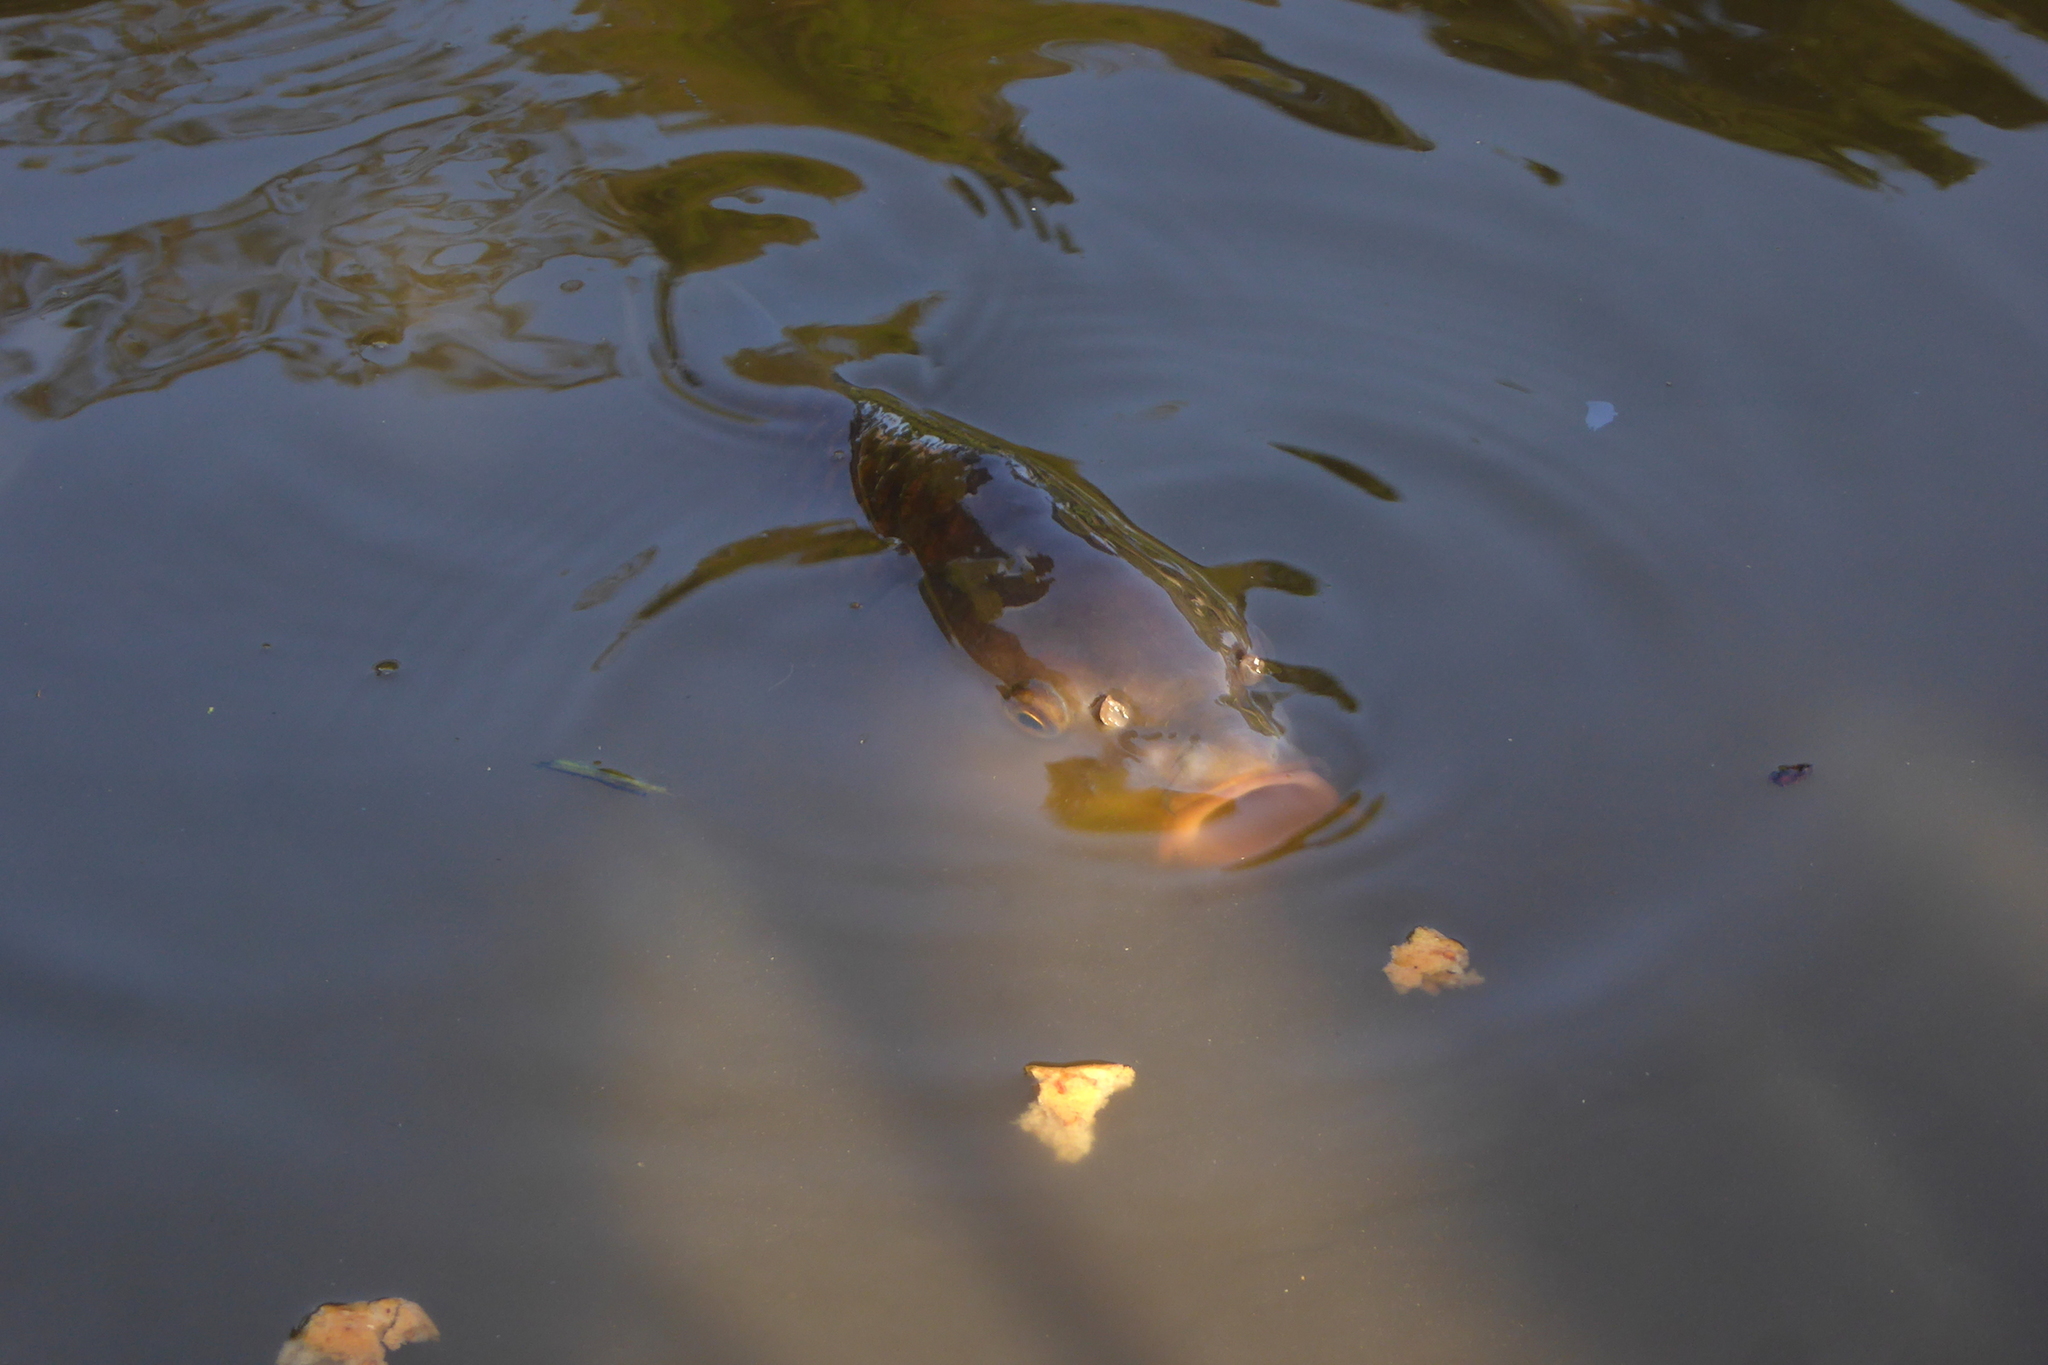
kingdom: Animalia
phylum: Chordata
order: Cypriniformes
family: Cyprinidae
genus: Cyprinus
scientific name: Cyprinus carpio
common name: Common carp
